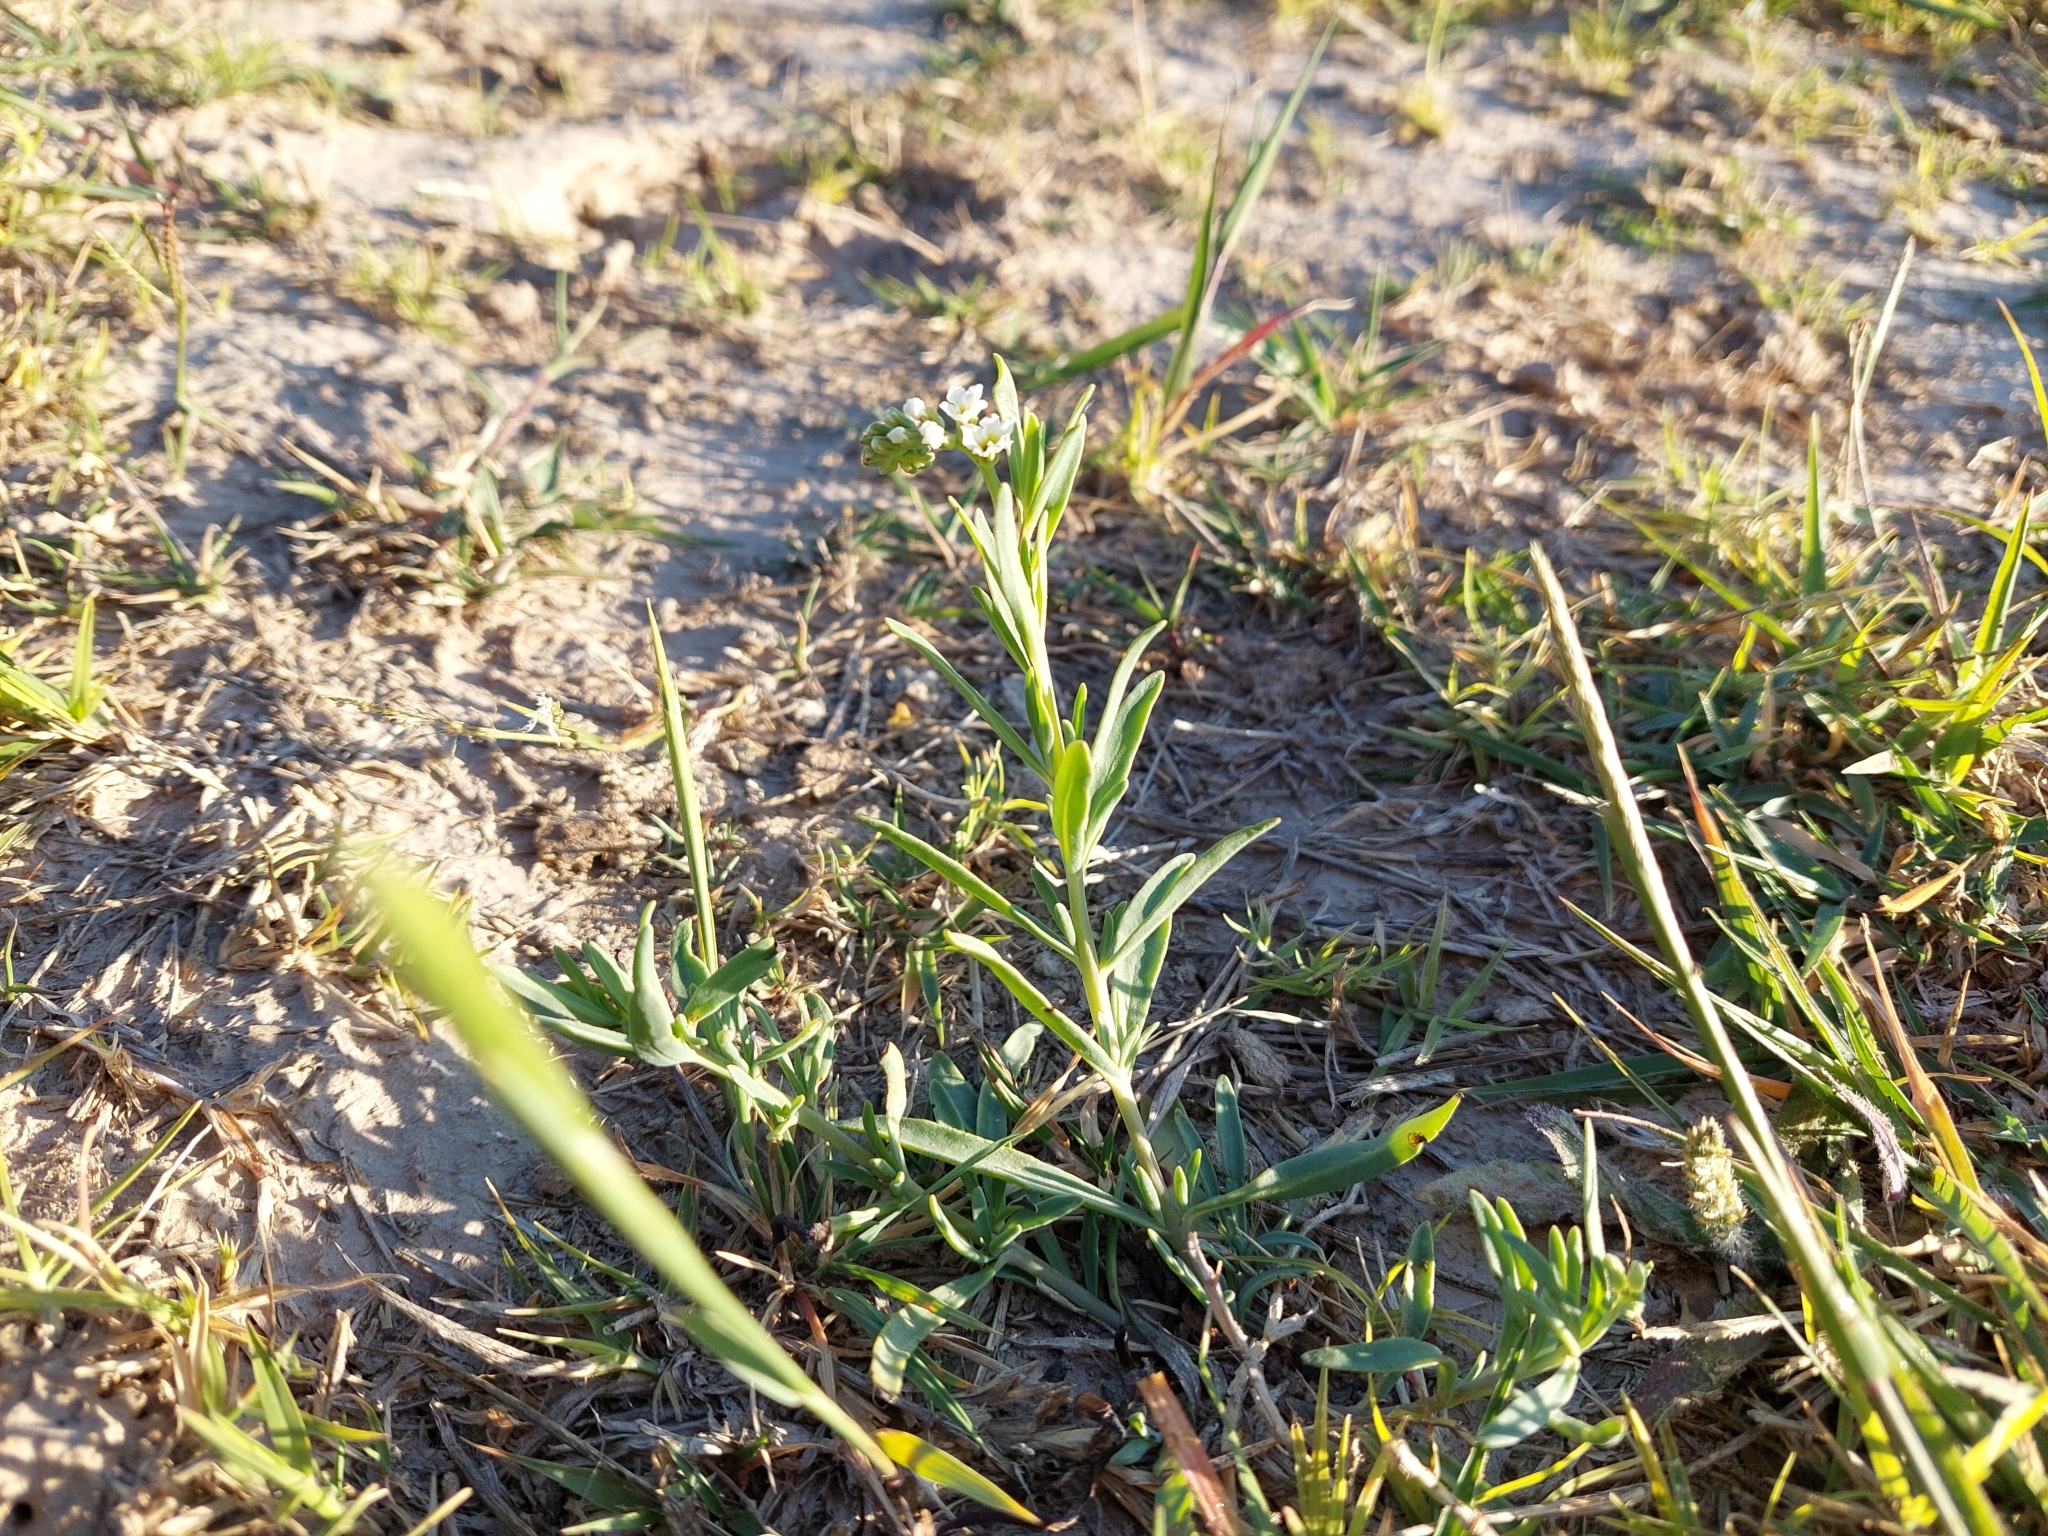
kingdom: Plantae
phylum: Tracheophyta
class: Magnoliopsida
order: Boraginales
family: Heliotropiaceae
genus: Heliotropium
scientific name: Heliotropium curassavicum
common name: Seaside heliotrope
